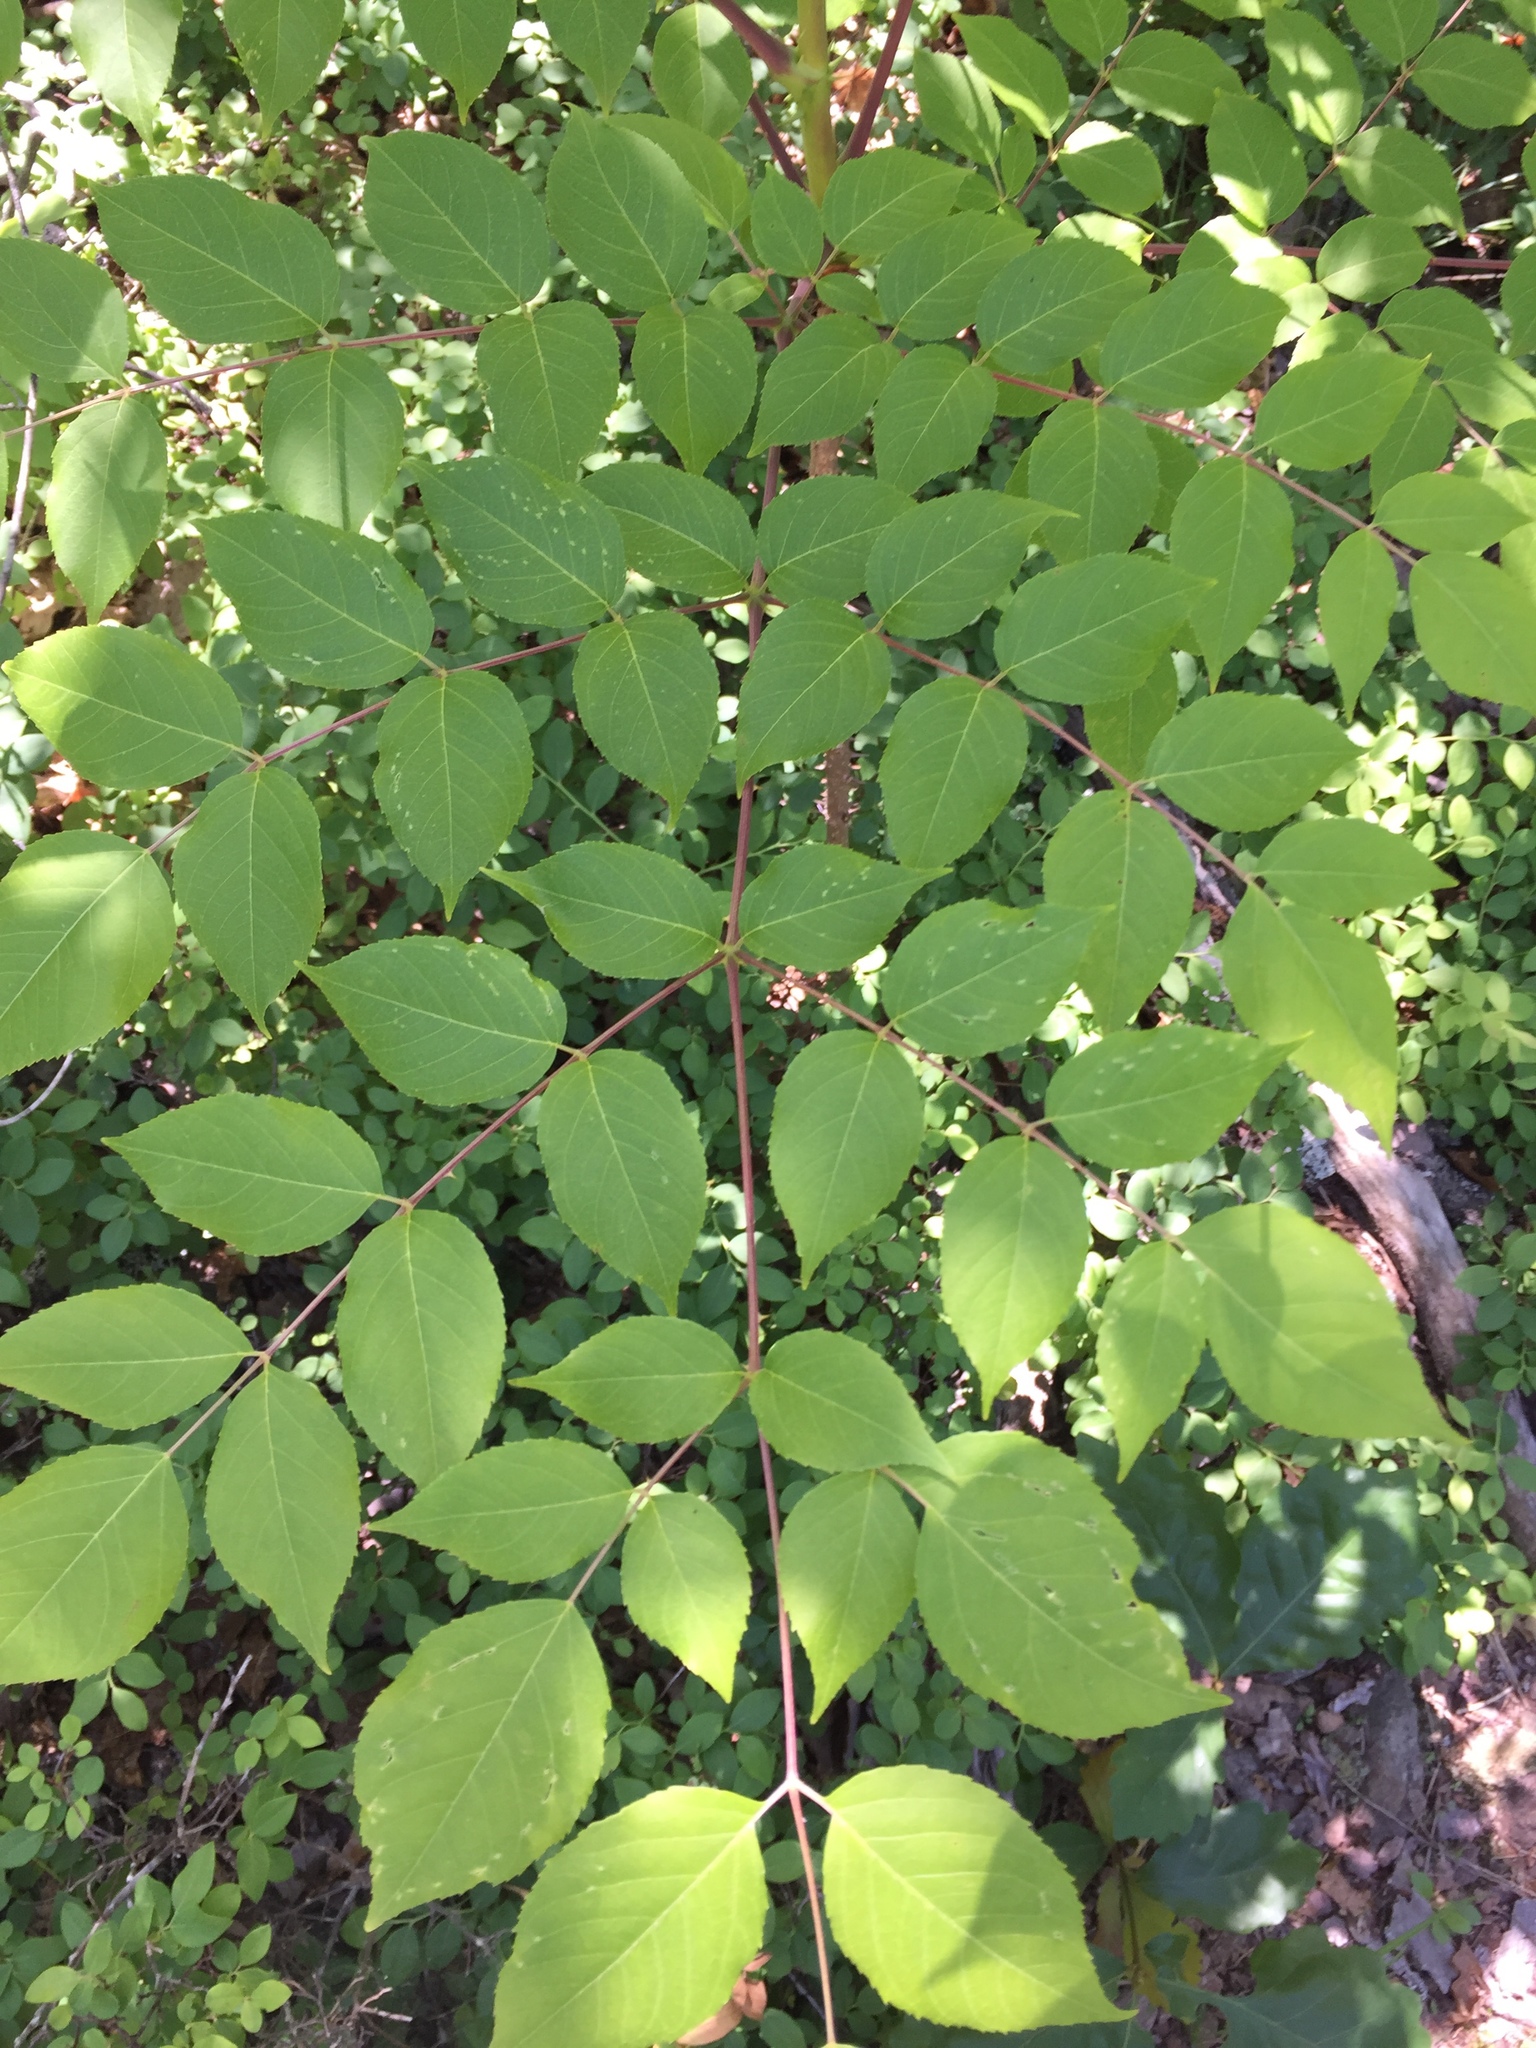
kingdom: Plantae
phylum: Tracheophyta
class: Magnoliopsida
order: Apiales
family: Araliaceae
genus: Aralia
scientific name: Aralia spinosa
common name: Hercules'-club
